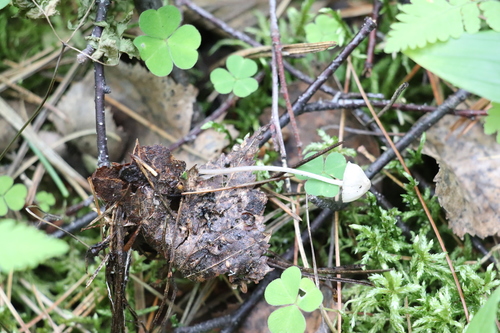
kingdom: Fungi
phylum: Basidiomycota
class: Agaricomycetes
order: Agaricales
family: Mycenaceae
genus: Mycena
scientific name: Mycena
